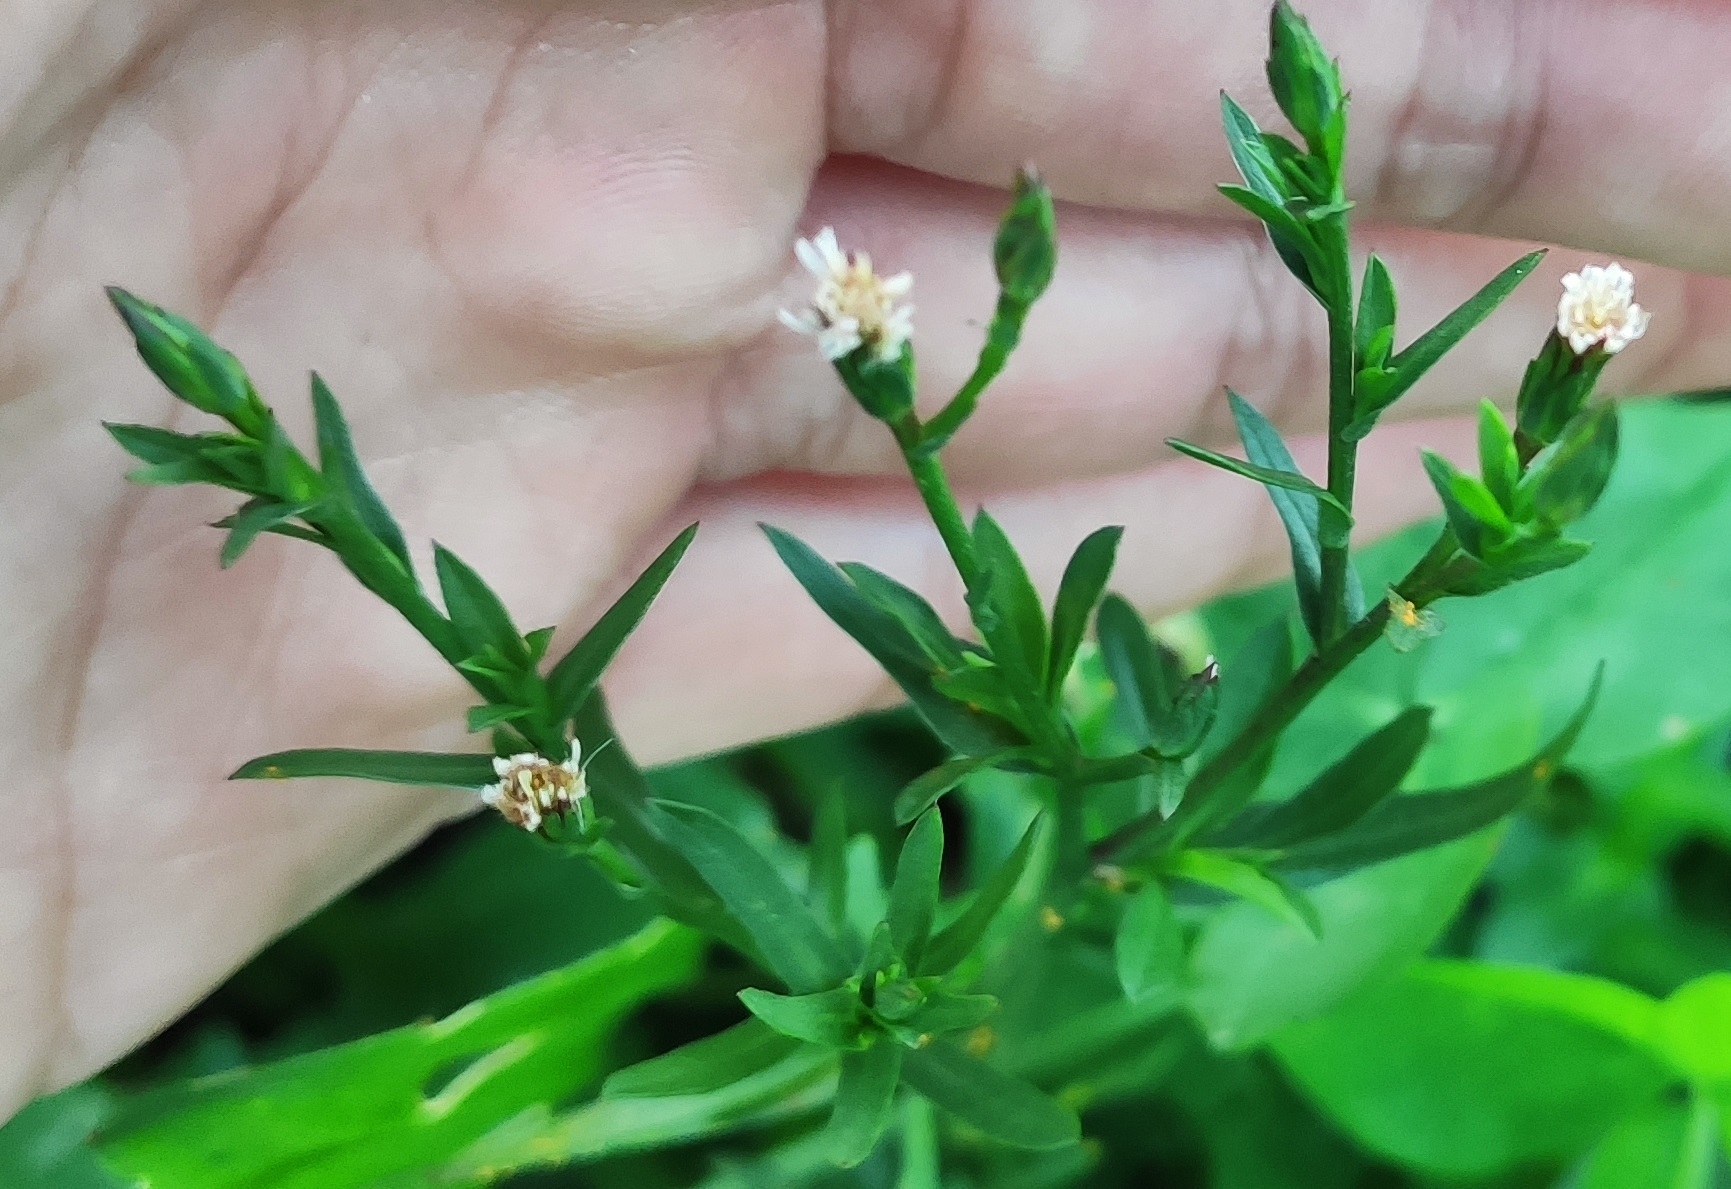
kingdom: Plantae
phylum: Tracheophyta
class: Magnoliopsida
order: Asterales
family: Asteraceae
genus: Symphyotrichum
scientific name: Symphyotrichum subulatum
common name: Annual saltmarsh aster
